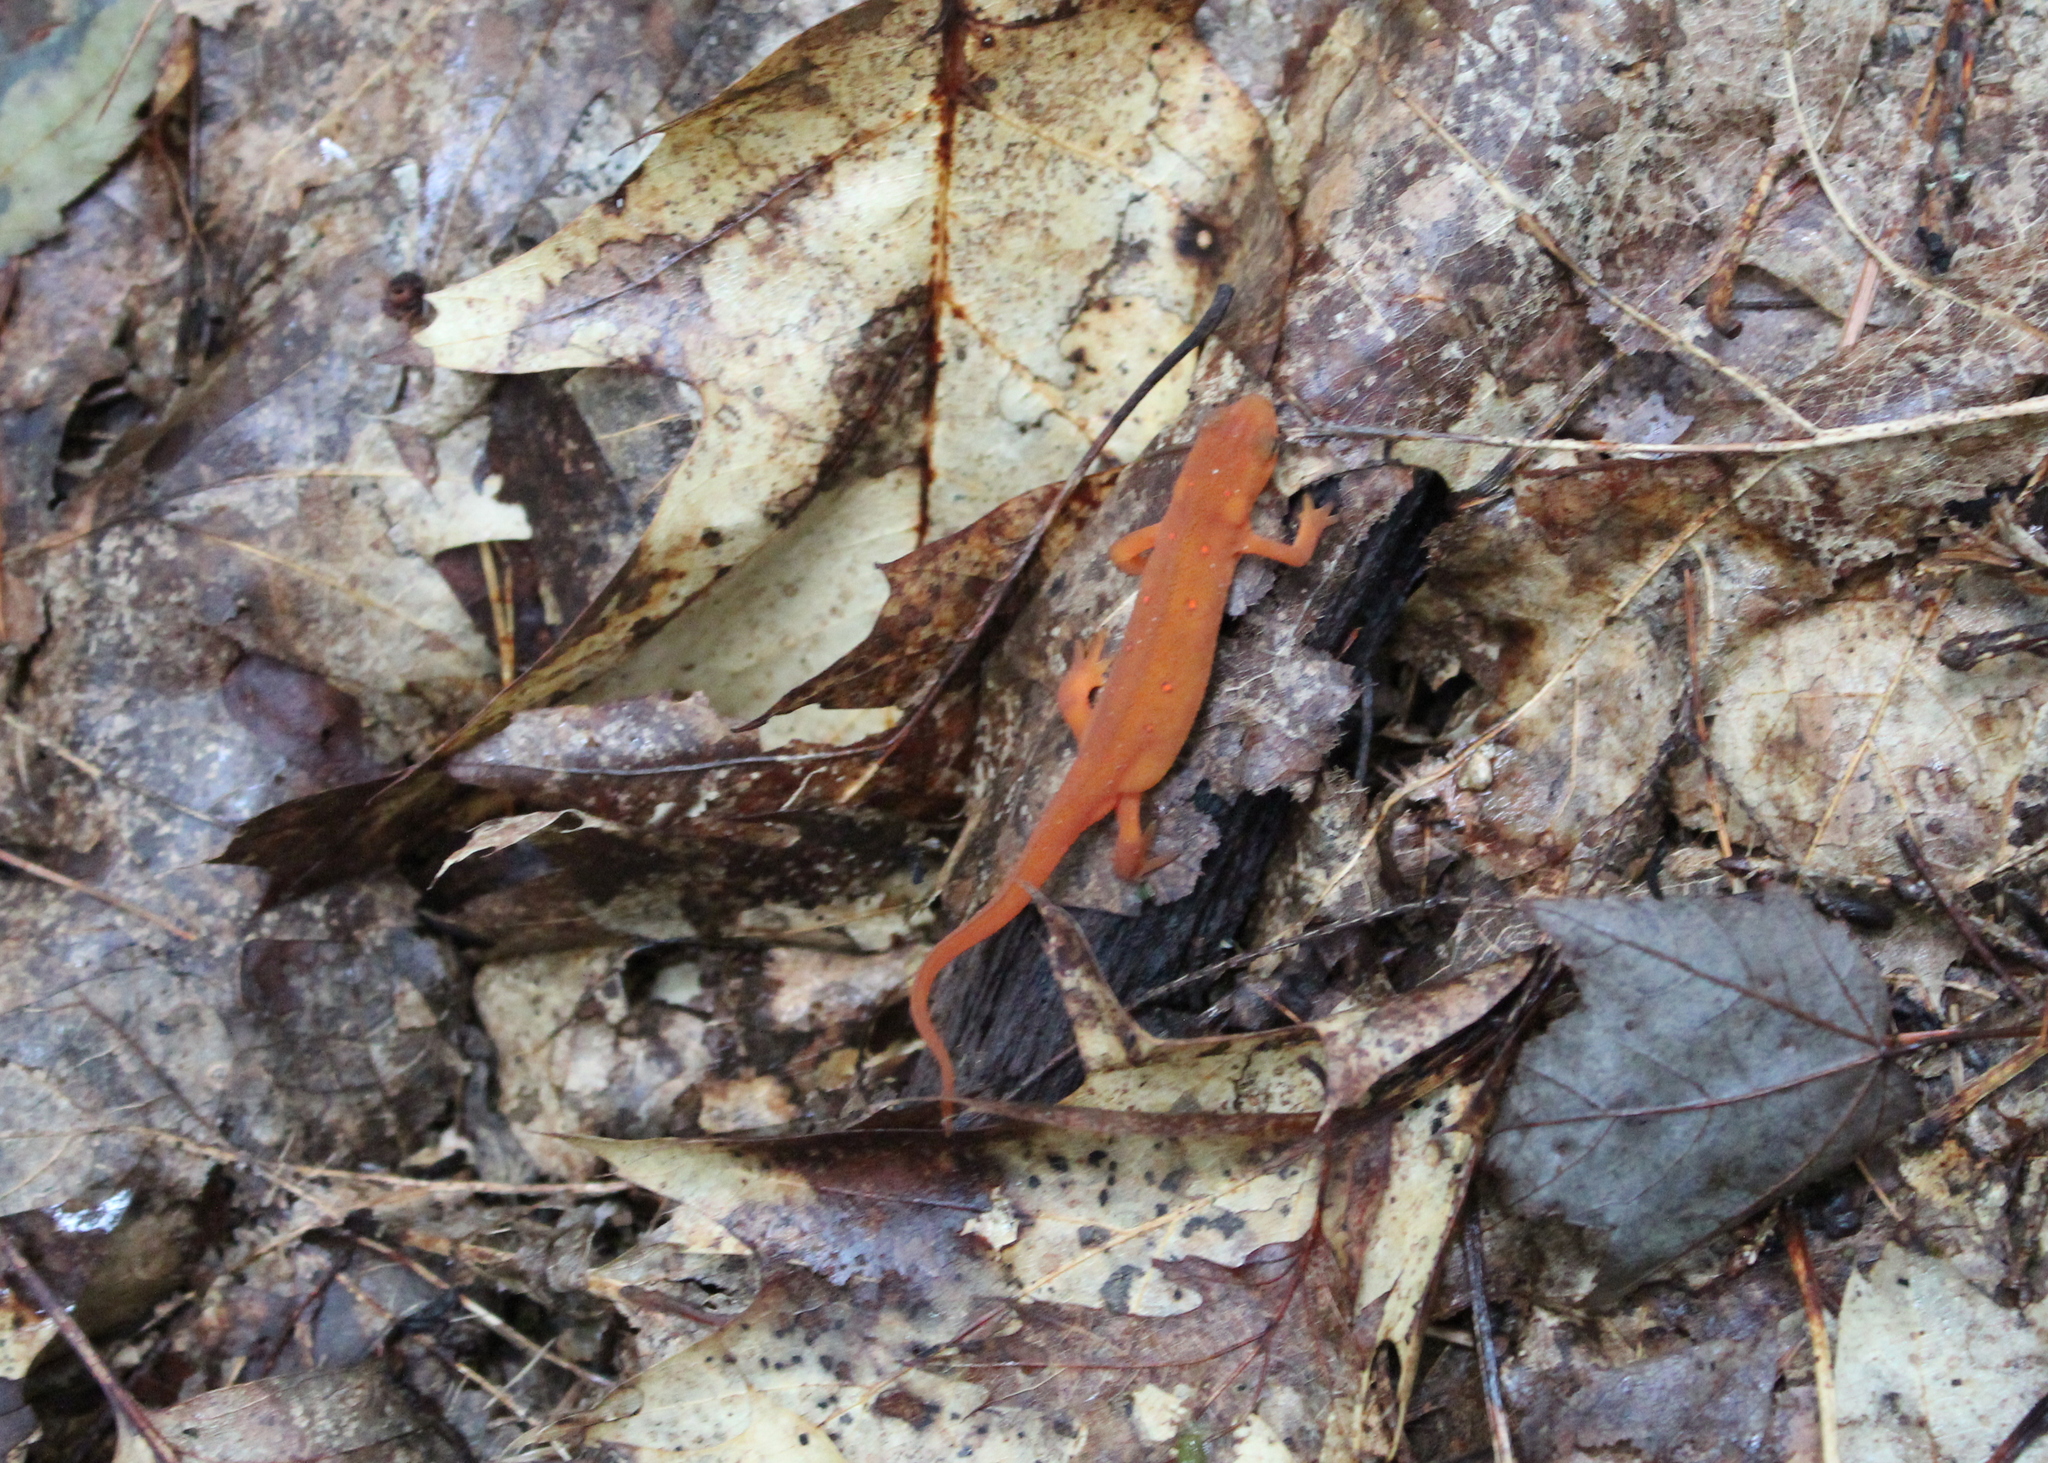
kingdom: Animalia
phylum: Chordata
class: Amphibia
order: Caudata
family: Salamandridae
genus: Notophthalmus
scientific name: Notophthalmus viridescens
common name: Eastern newt
